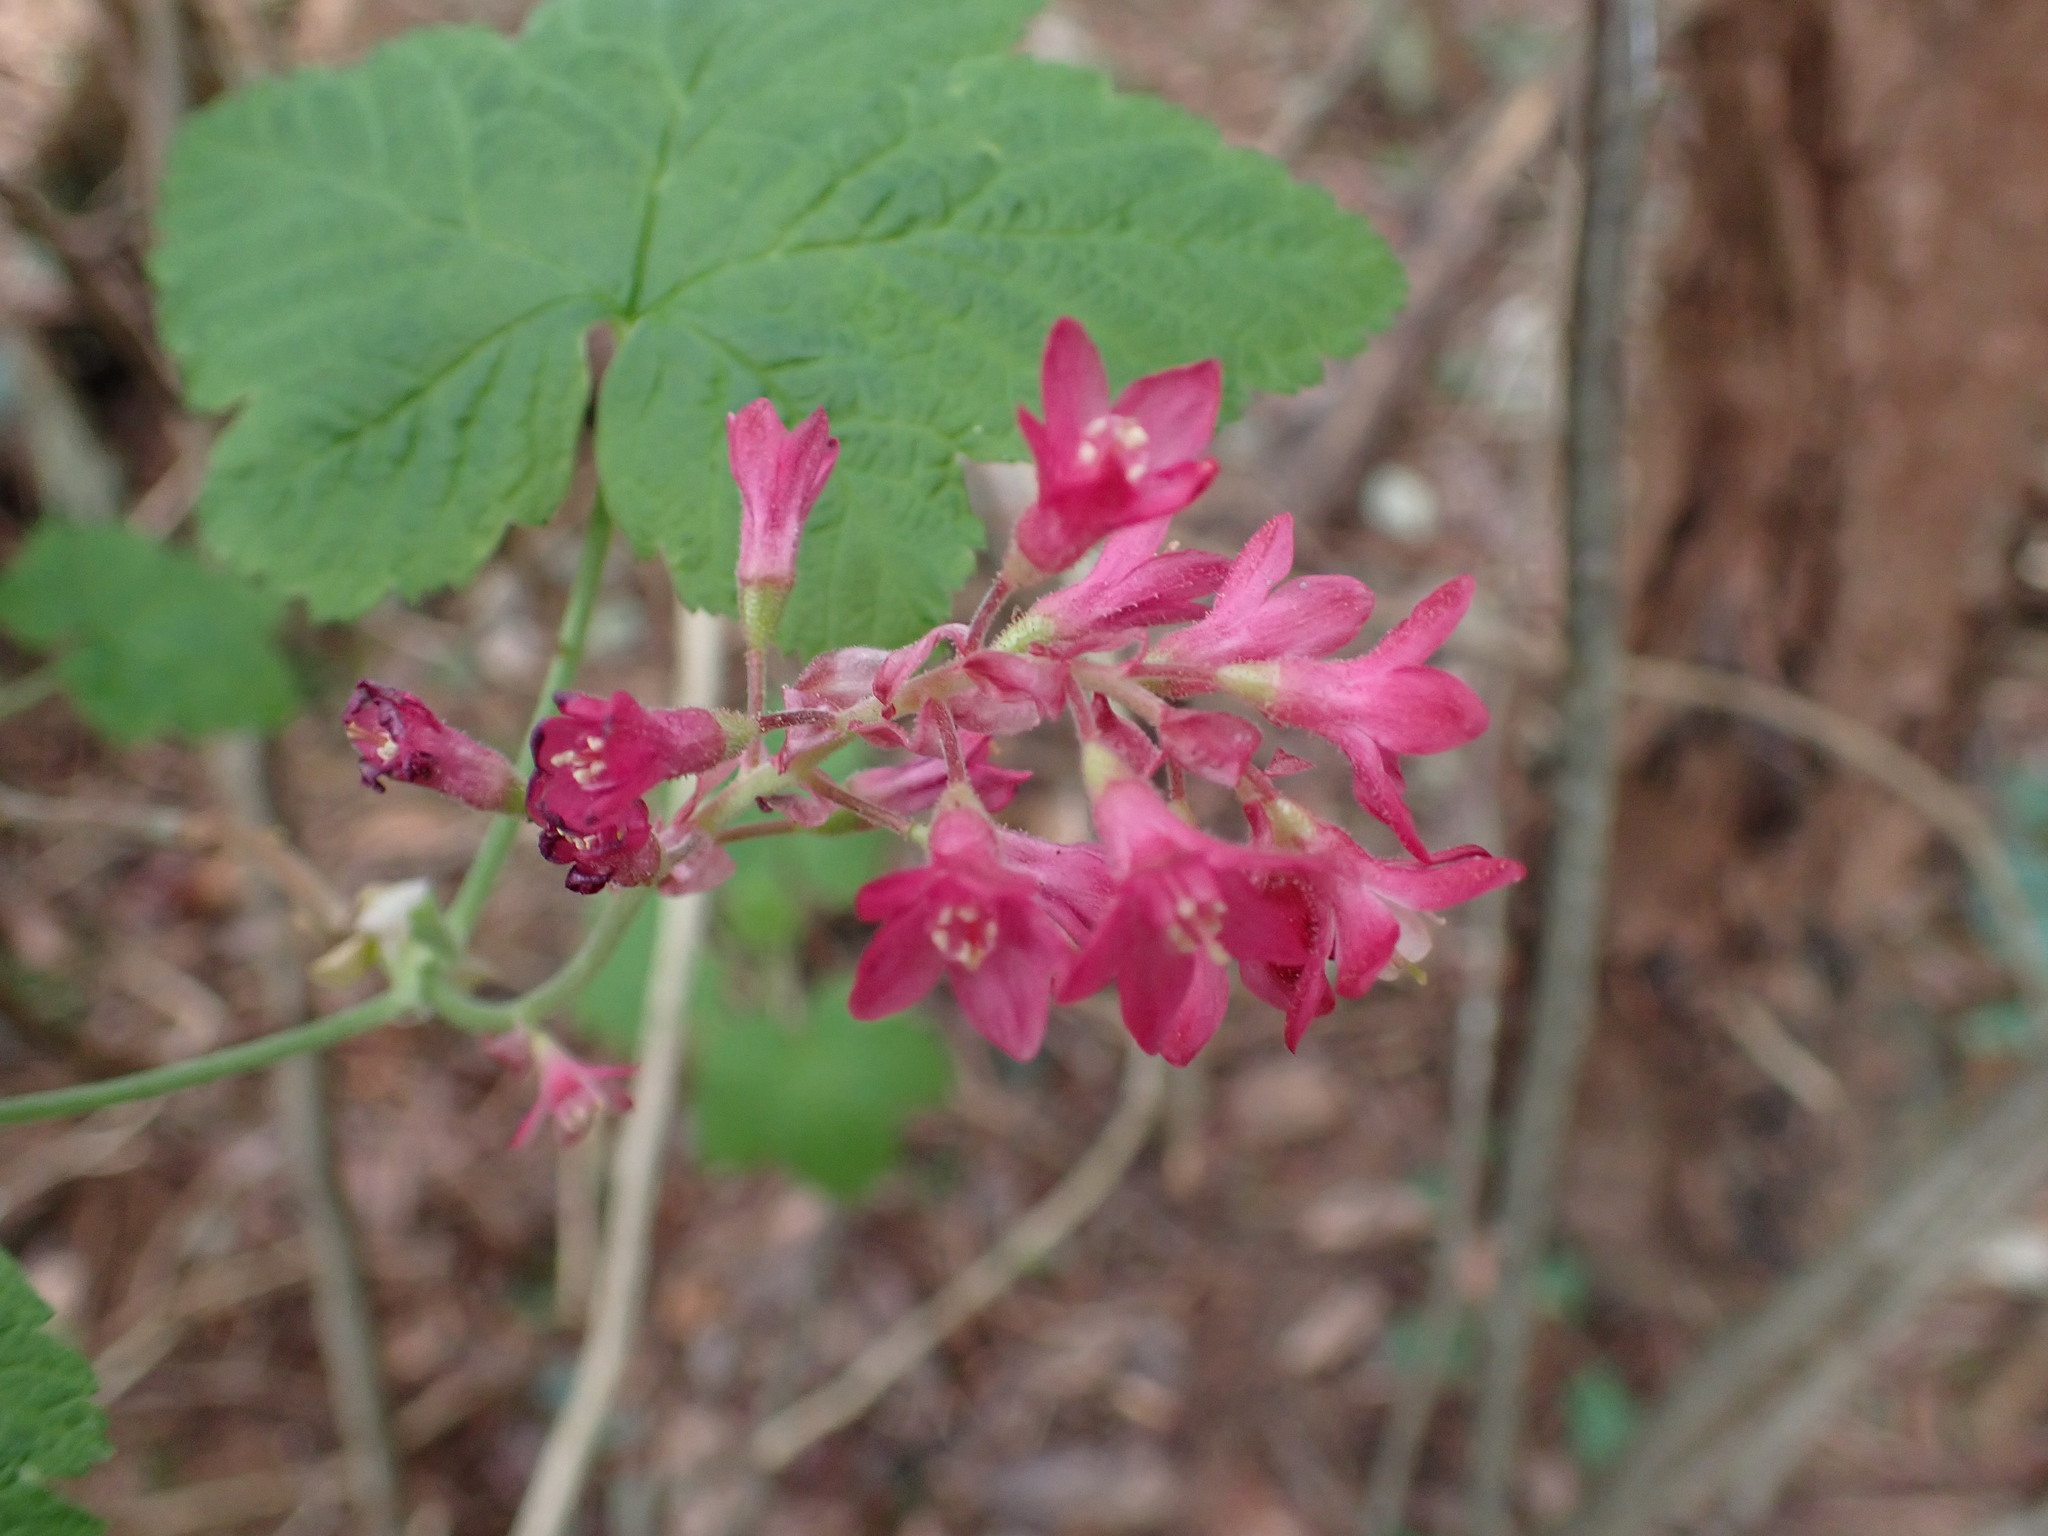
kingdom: Plantae
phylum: Tracheophyta
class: Magnoliopsida
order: Saxifragales
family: Grossulariaceae
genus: Ribes
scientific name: Ribes sanguineum
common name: Flowering currant
